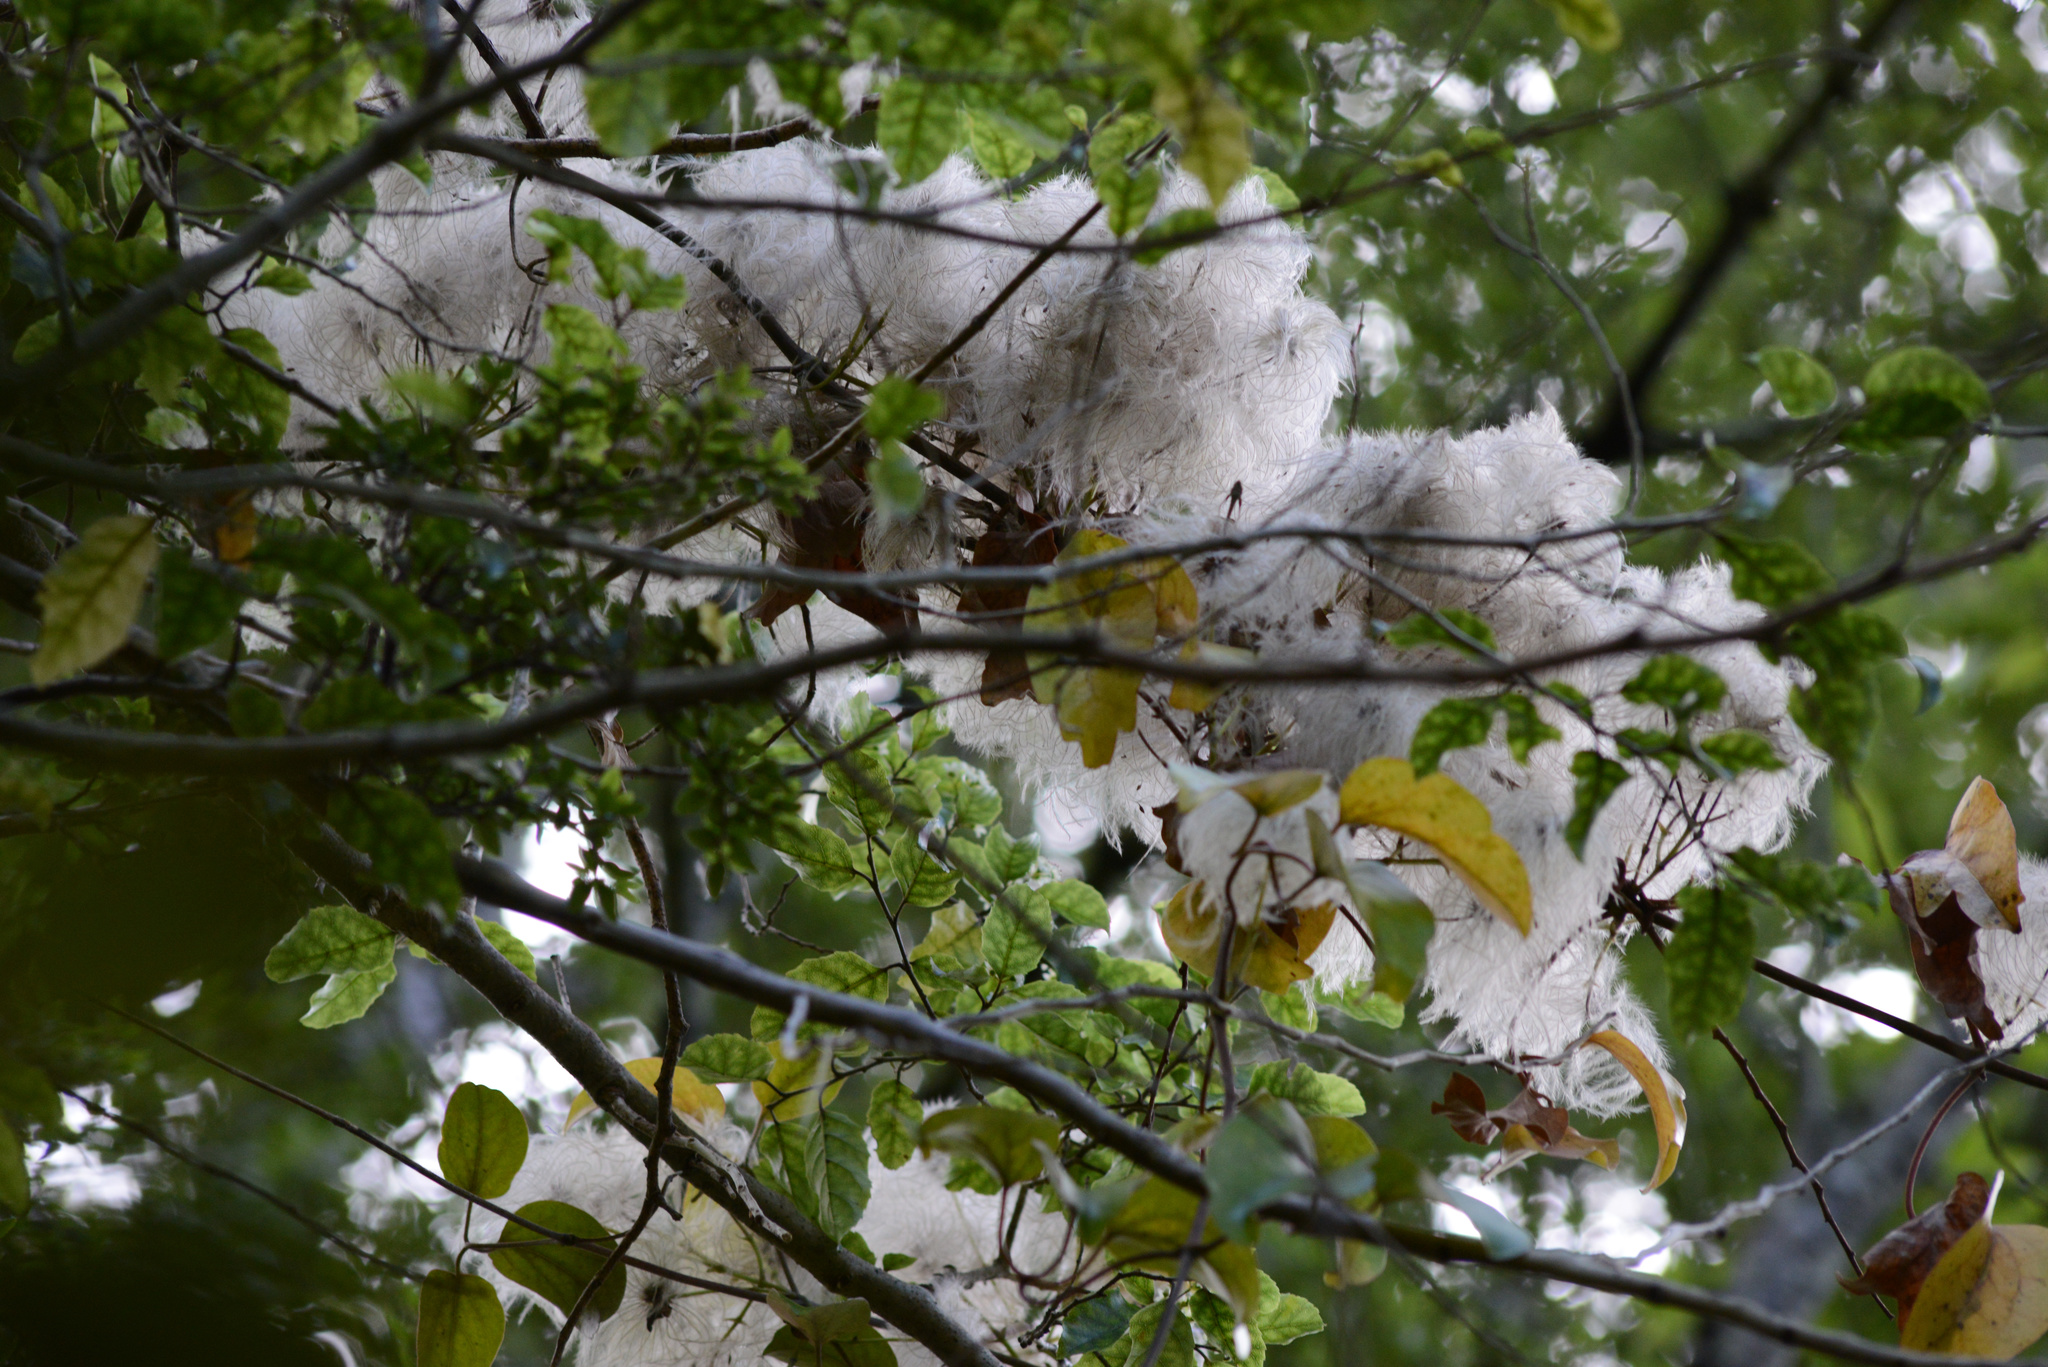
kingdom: Plantae
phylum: Tracheophyta
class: Magnoliopsida
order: Ranunculales
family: Ranunculaceae
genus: Clematis
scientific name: Clematis paniculata
